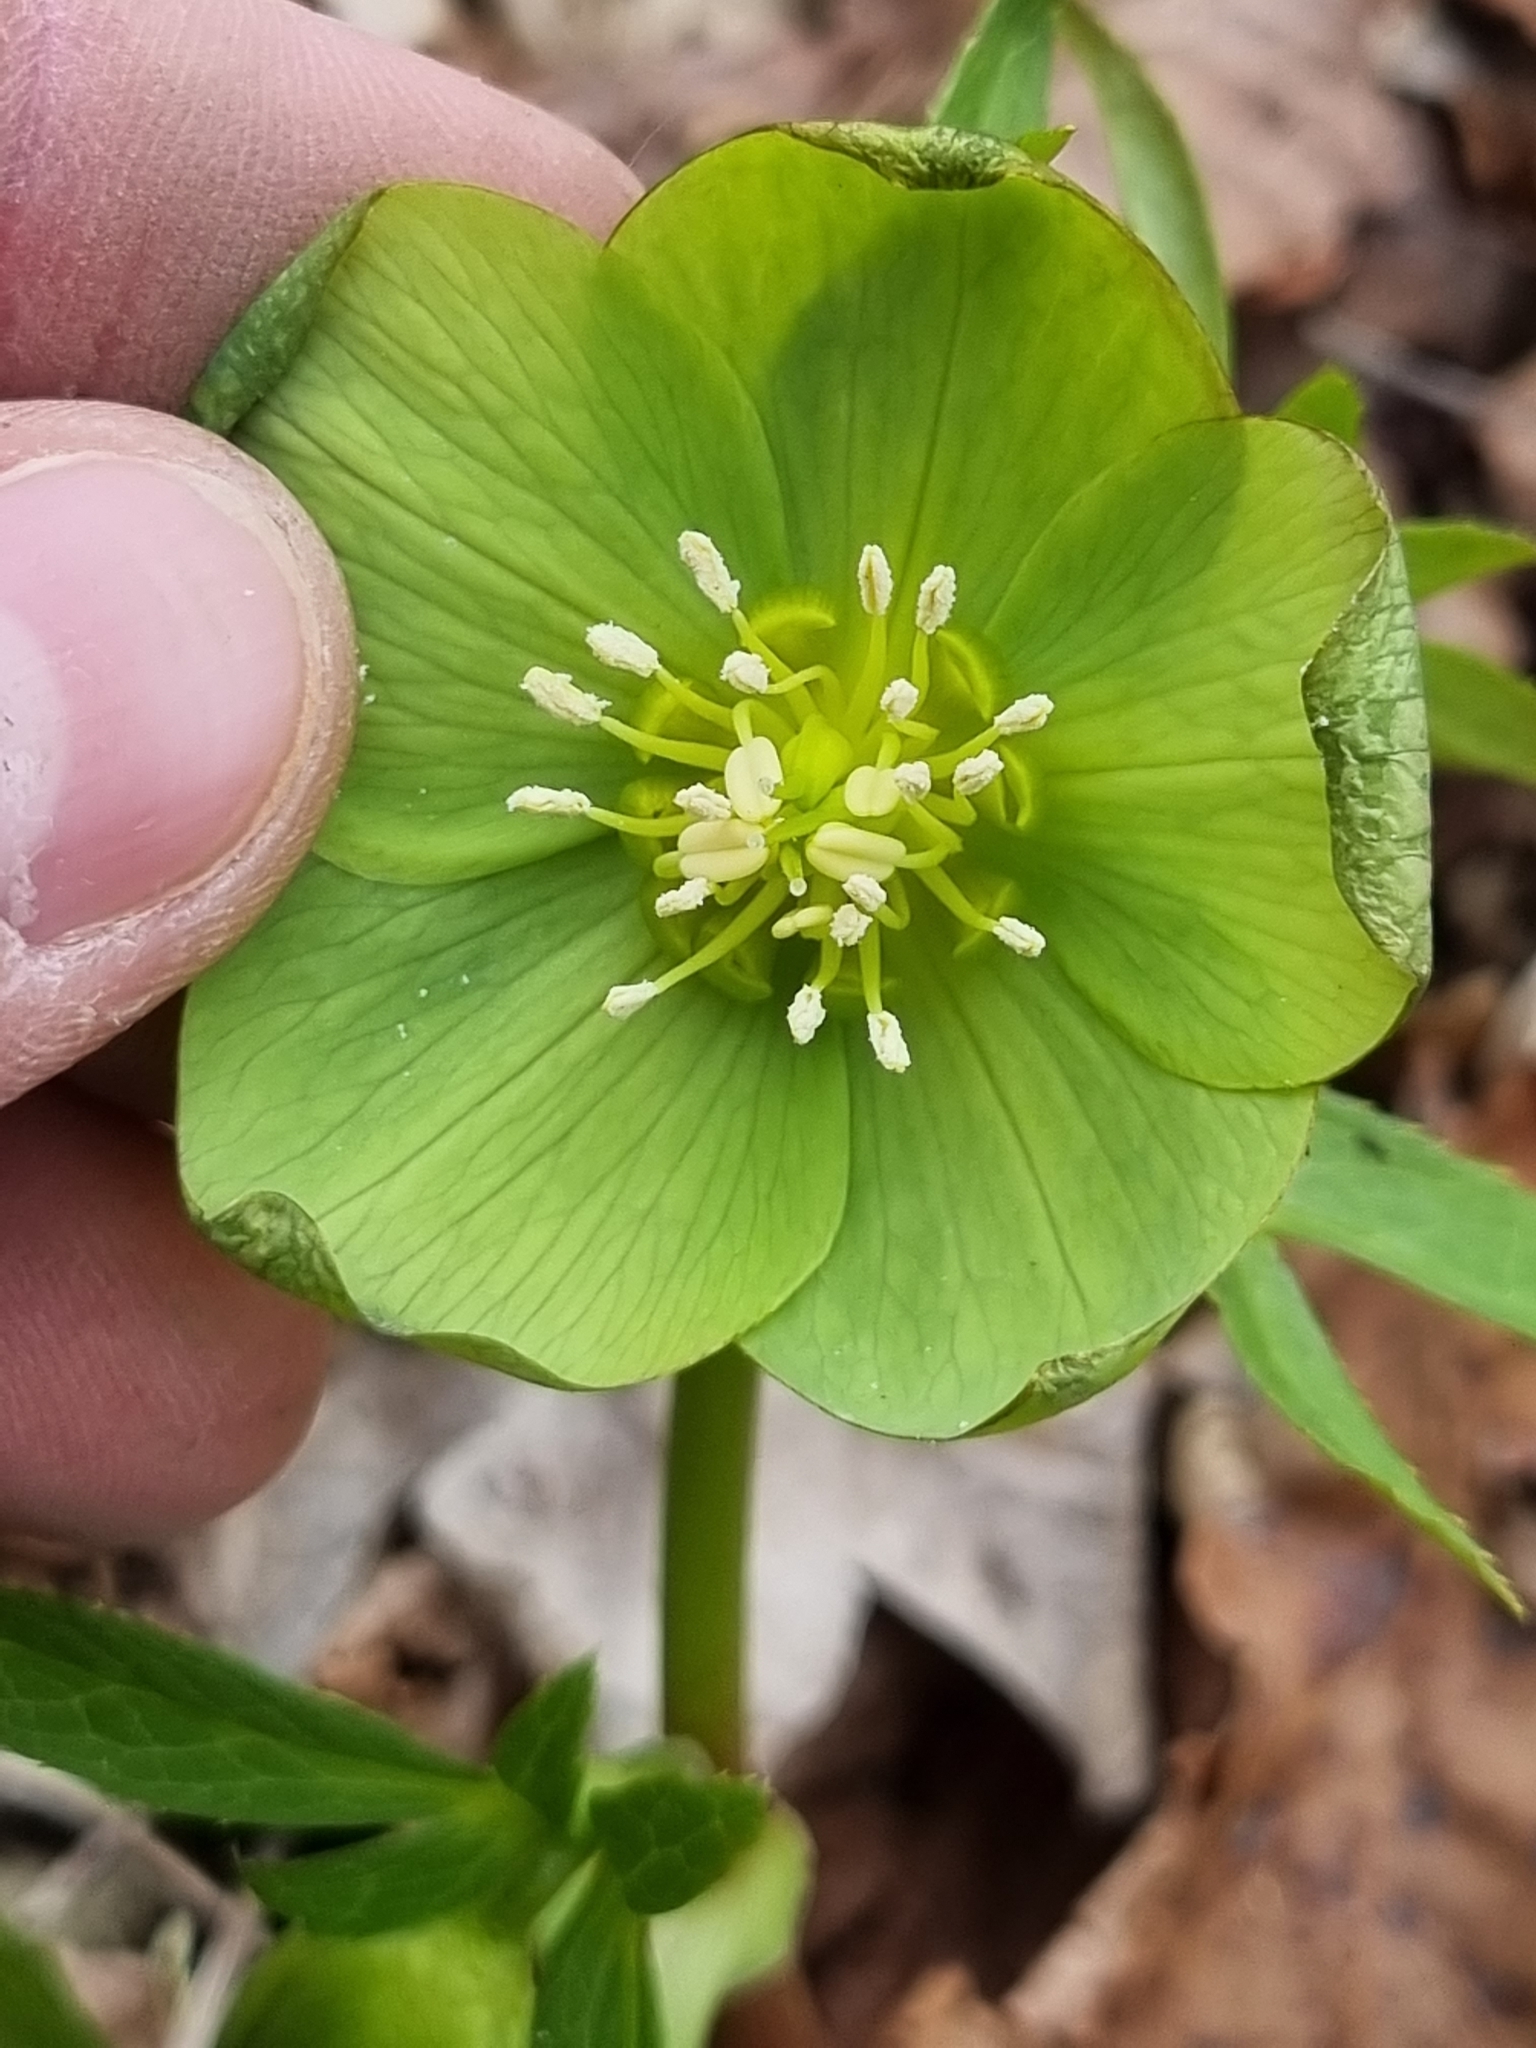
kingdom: Plantae
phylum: Tracheophyta
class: Magnoliopsida
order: Ranunculales
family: Ranunculaceae
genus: Helleborus
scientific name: Helleborus odorus
